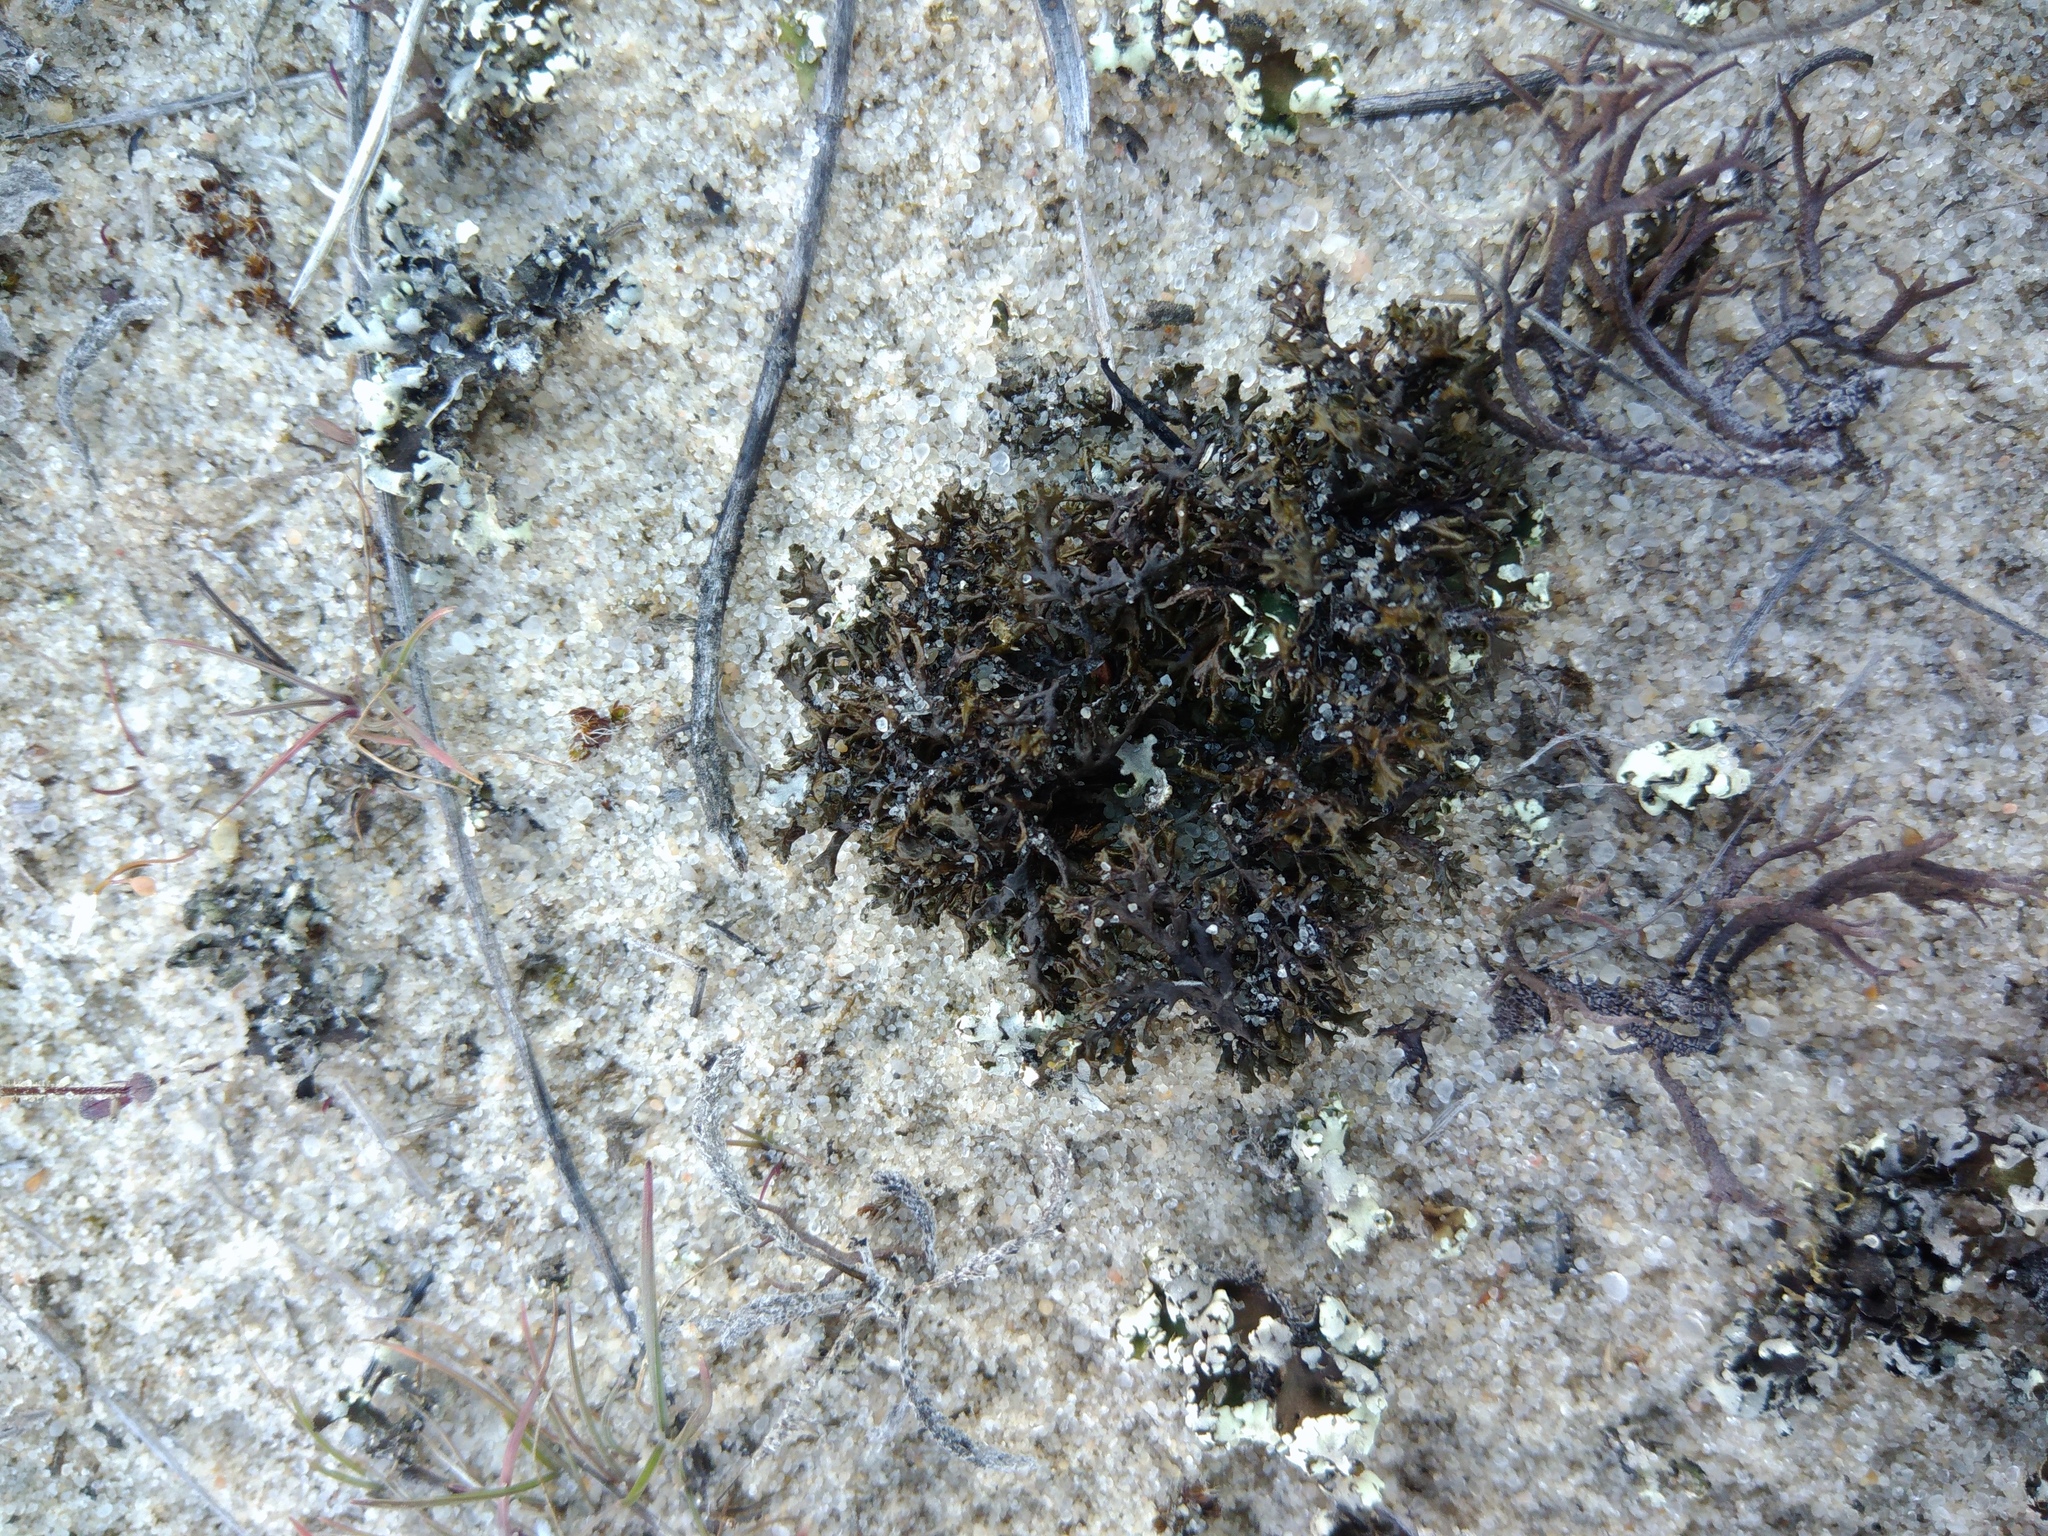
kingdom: Fungi
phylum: Ascomycota
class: Lecanoromycetes
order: Lecanorales
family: Parmeliaceae
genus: Xanthoparmelia
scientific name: Xanthoparmelia pokornyi
